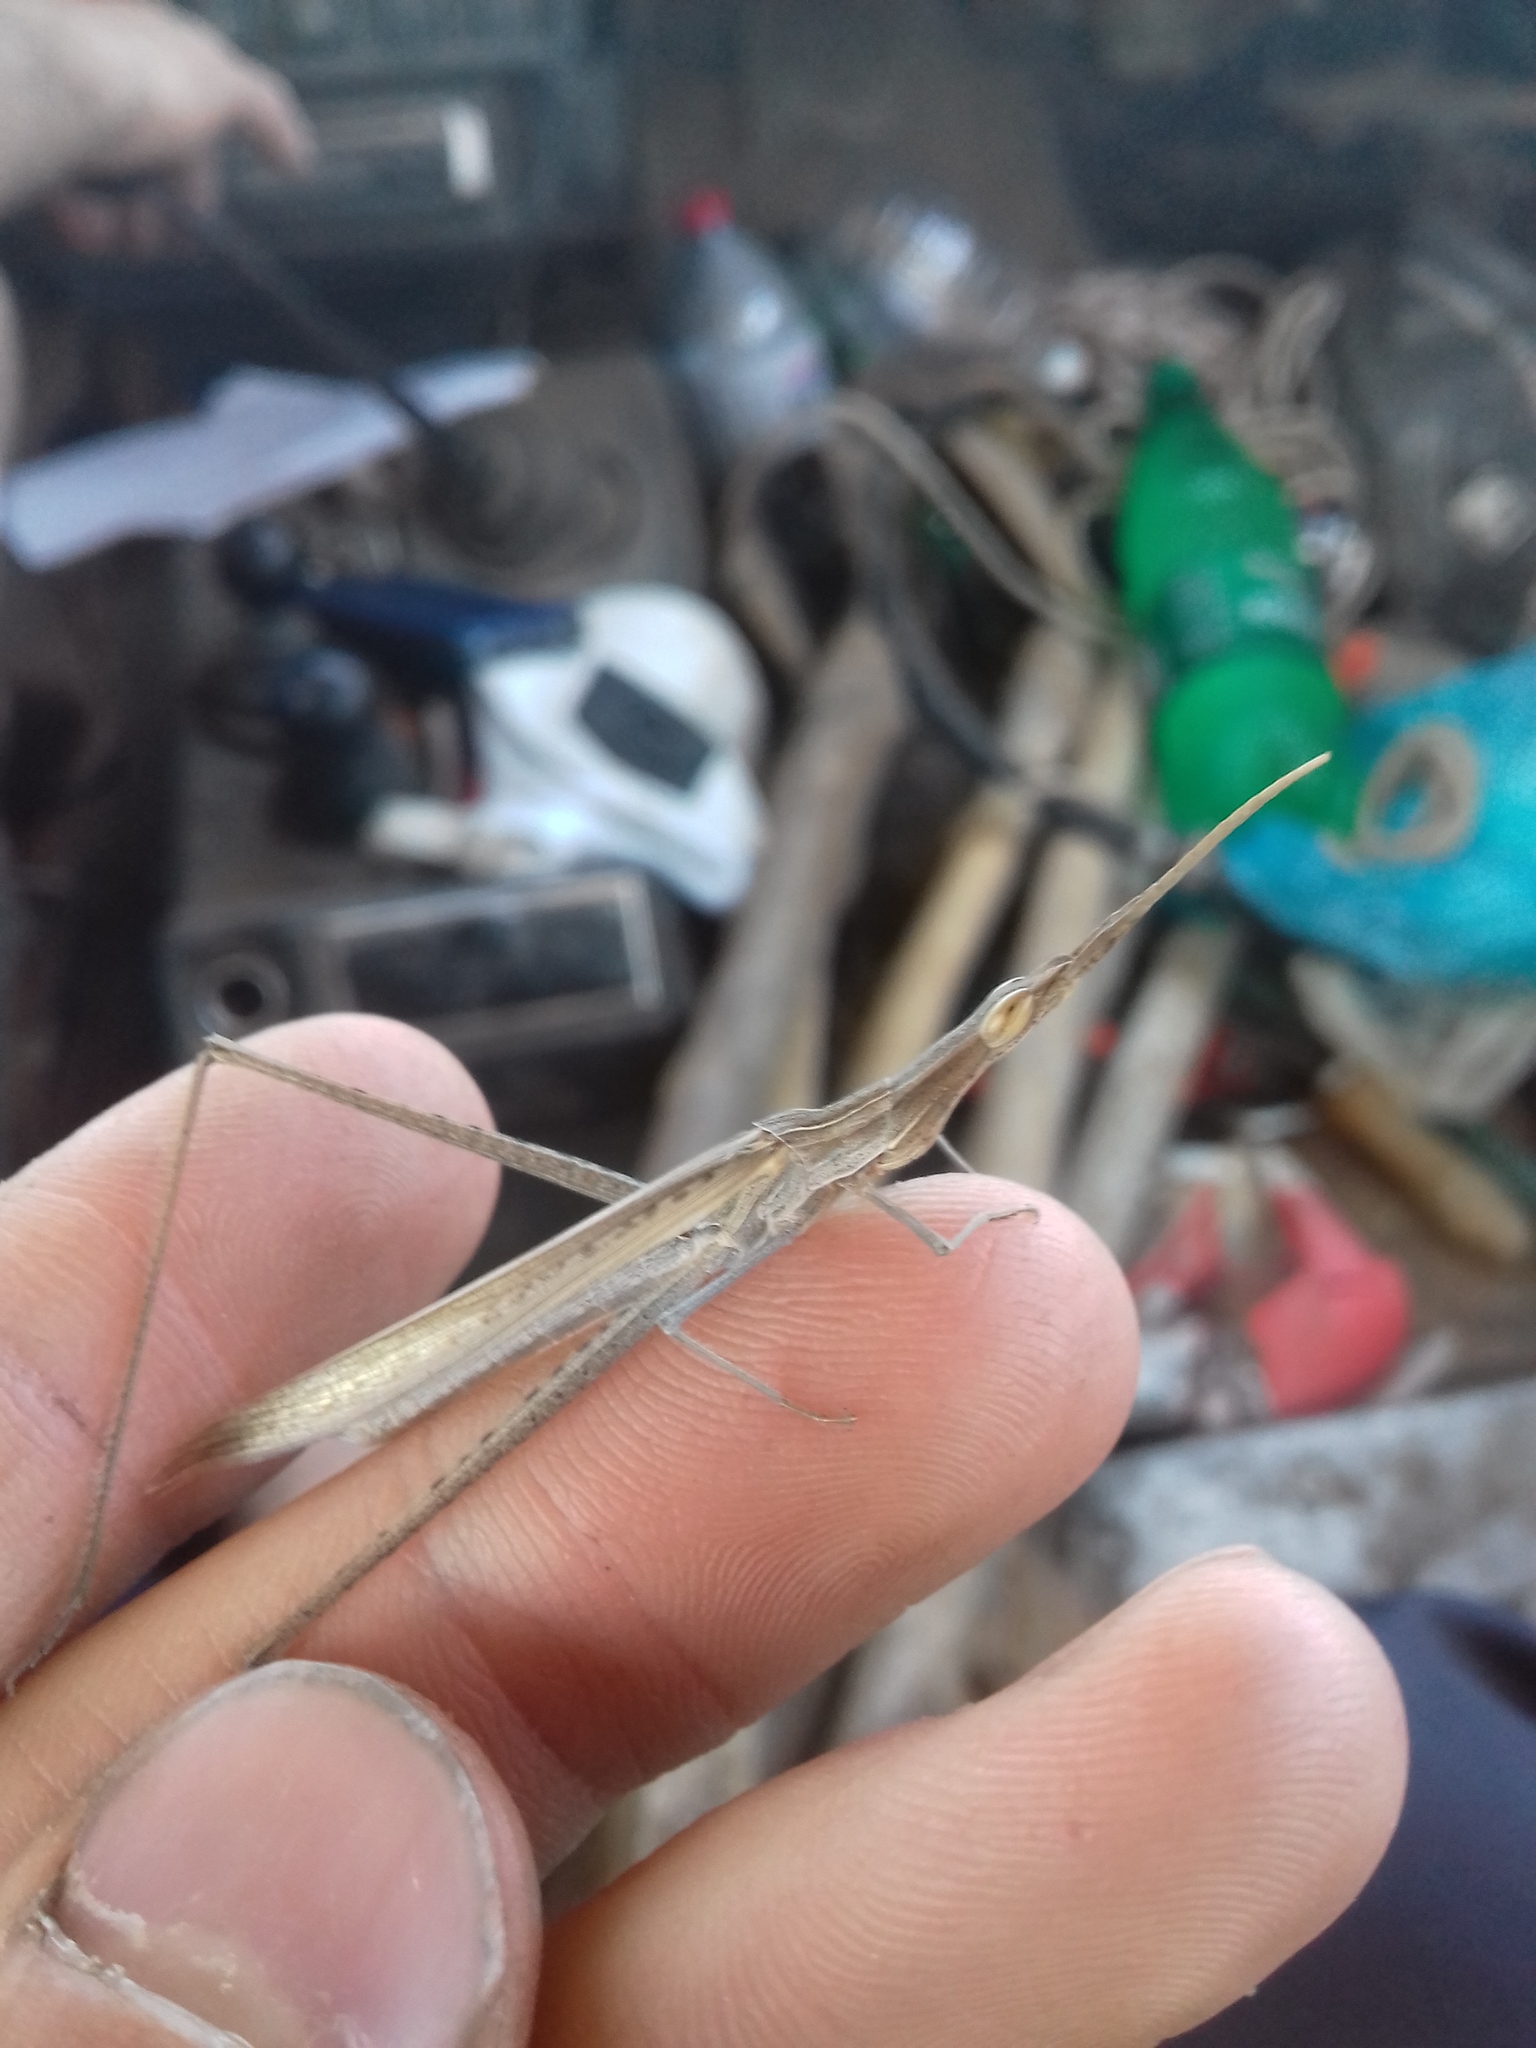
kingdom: Animalia
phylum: Arthropoda
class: Insecta
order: Orthoptera
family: Acrididae
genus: Acrida
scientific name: Acrida ungarica
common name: Common cone-headed grasshopper
